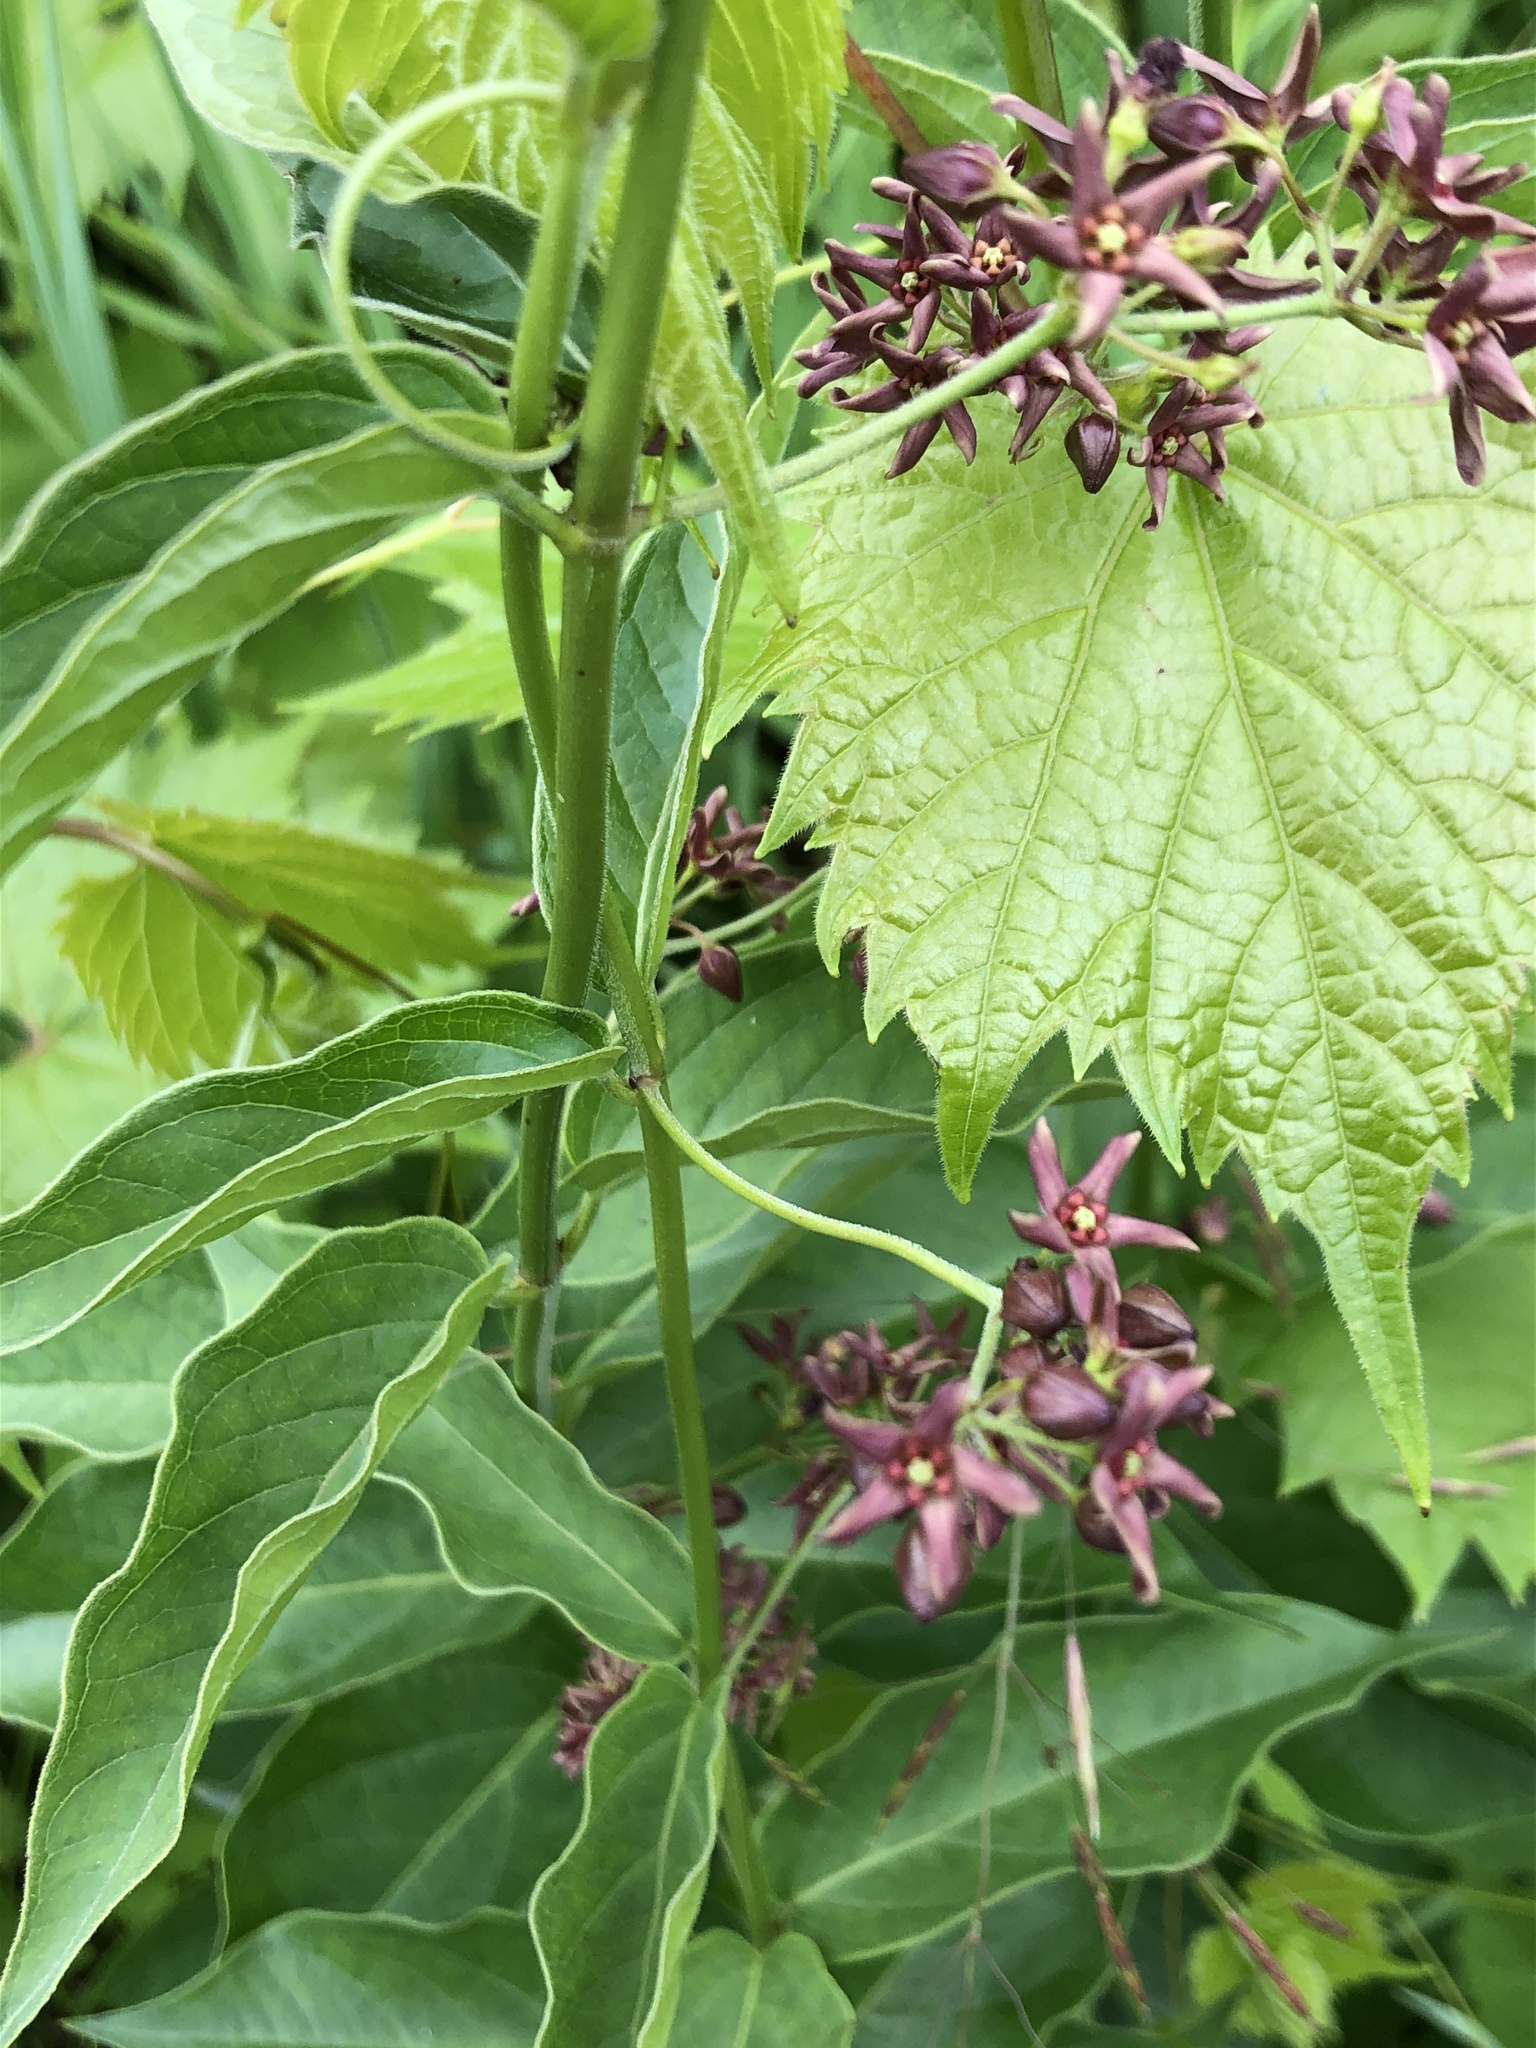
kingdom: Plantae
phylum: Tracheophyta
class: Magnoliopsida
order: Gentianales
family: Apocynaceae
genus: Vincetoxicum
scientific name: Vincetoxicum rossicum
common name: Dog-strangling vine
